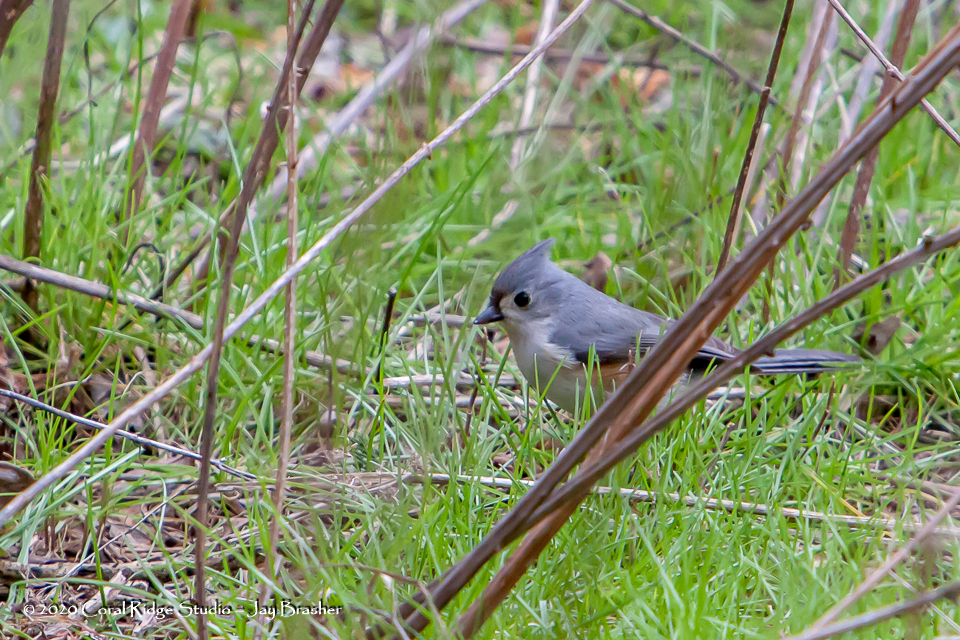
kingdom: Animalia
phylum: Chordata
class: Aves
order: Passeriformes
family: Paridae
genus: Baeolophus
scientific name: Baeolophus bicolor
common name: Tufted titmouse
